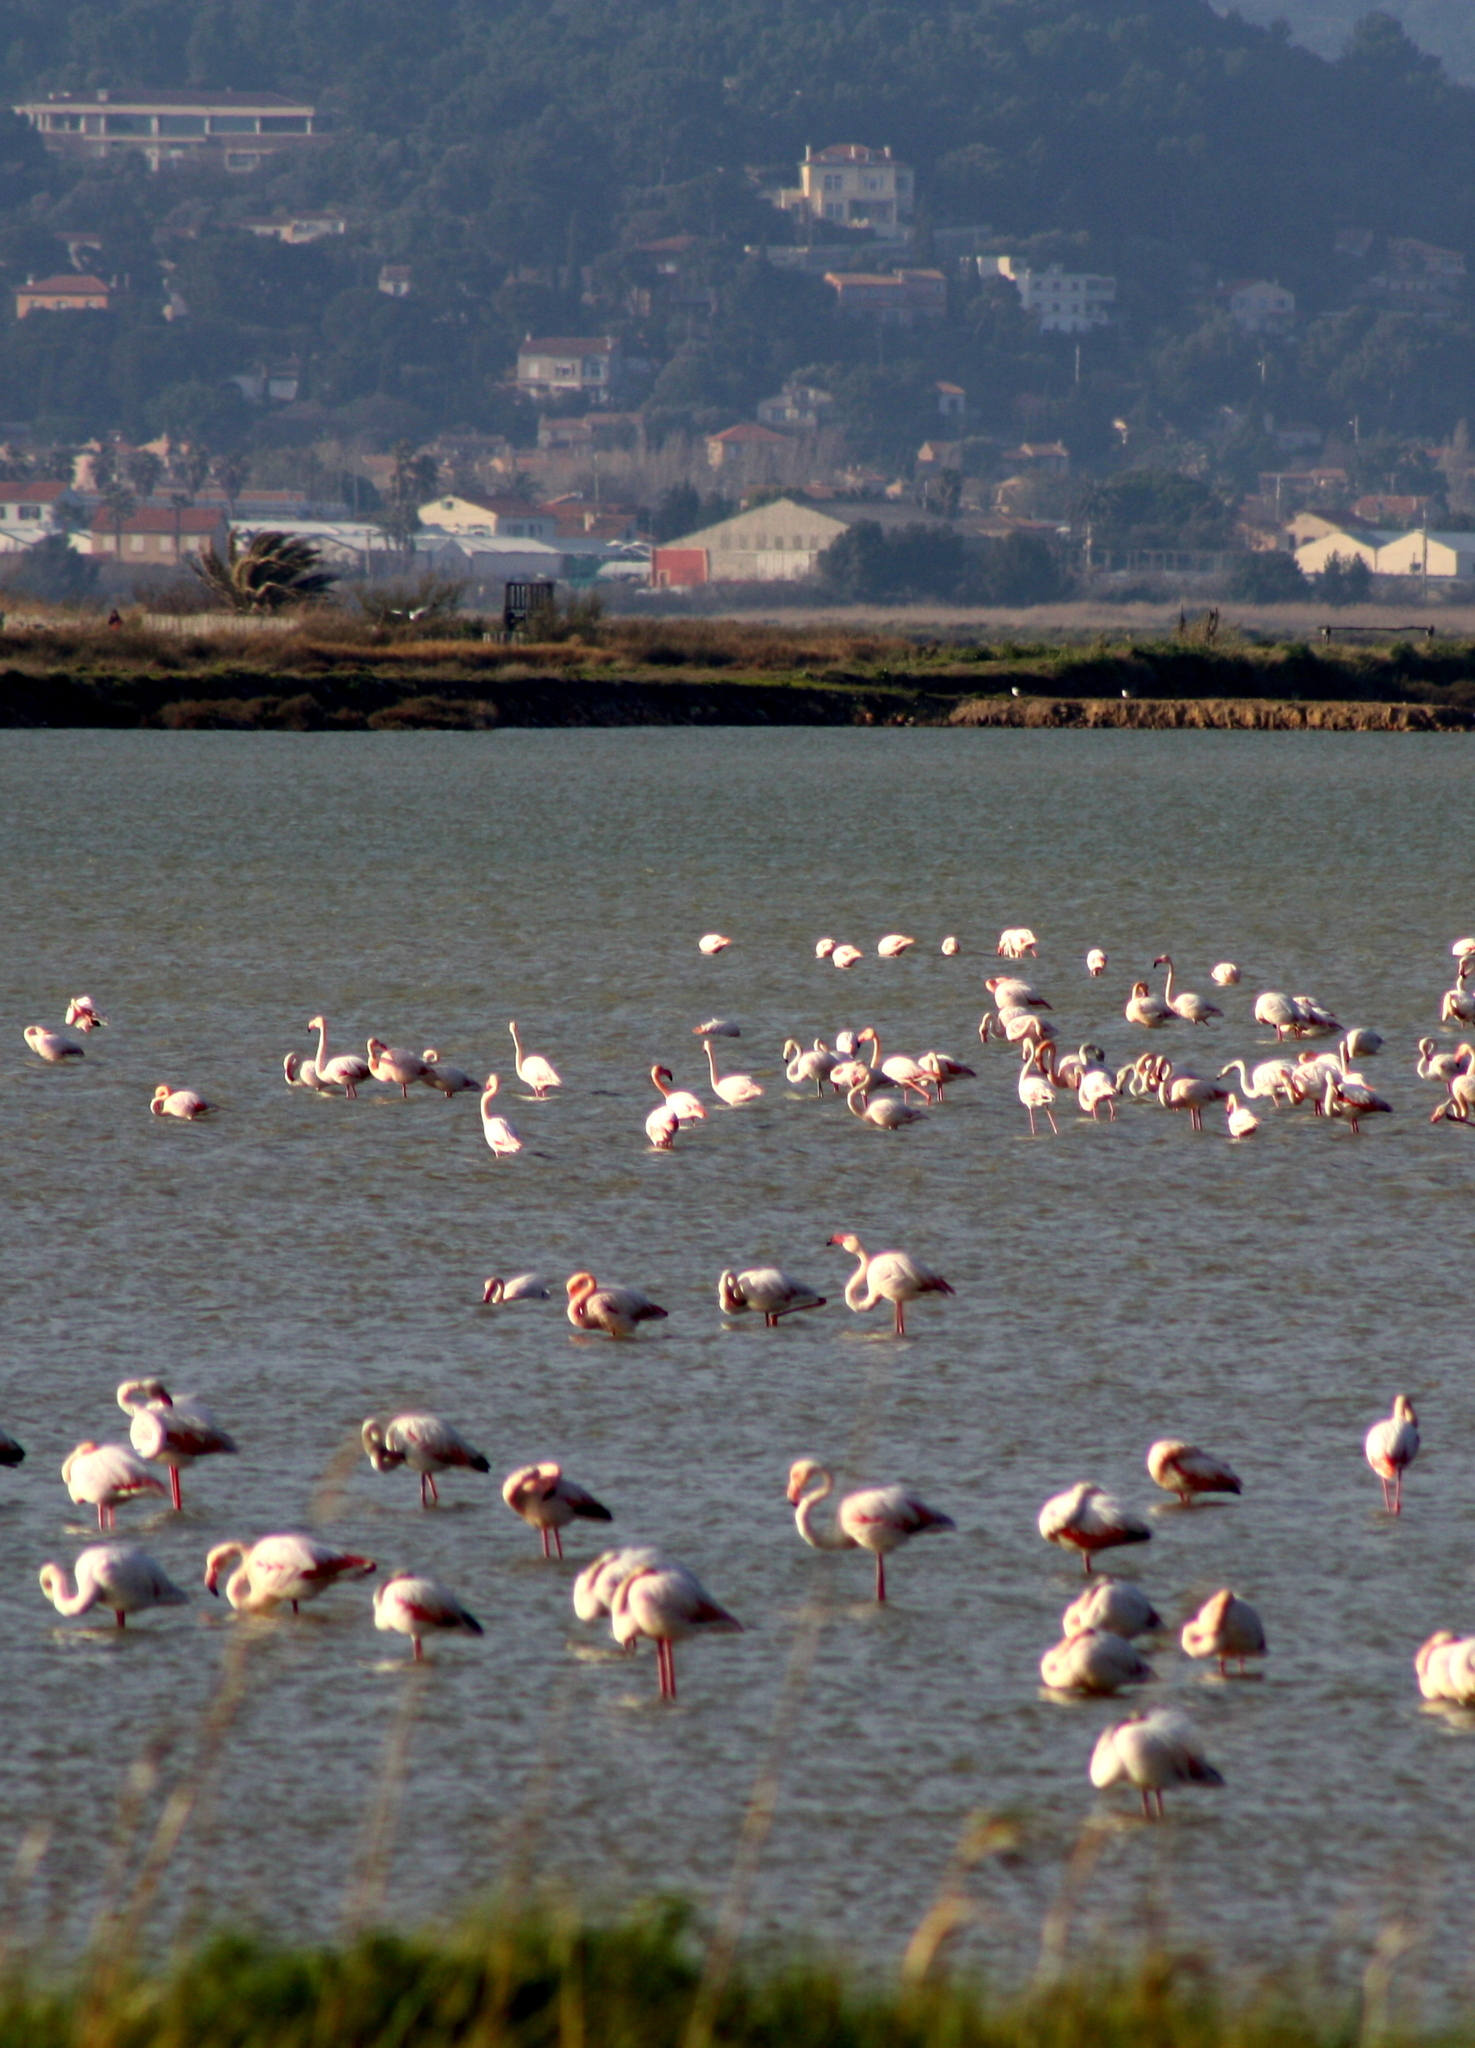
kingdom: Animalia
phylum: Chordata
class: Aves
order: Phoenicopteriformes
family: Phoenicopteridae
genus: Phoenicopterus
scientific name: Phoenicopterus roseus
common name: Greater flamingo
